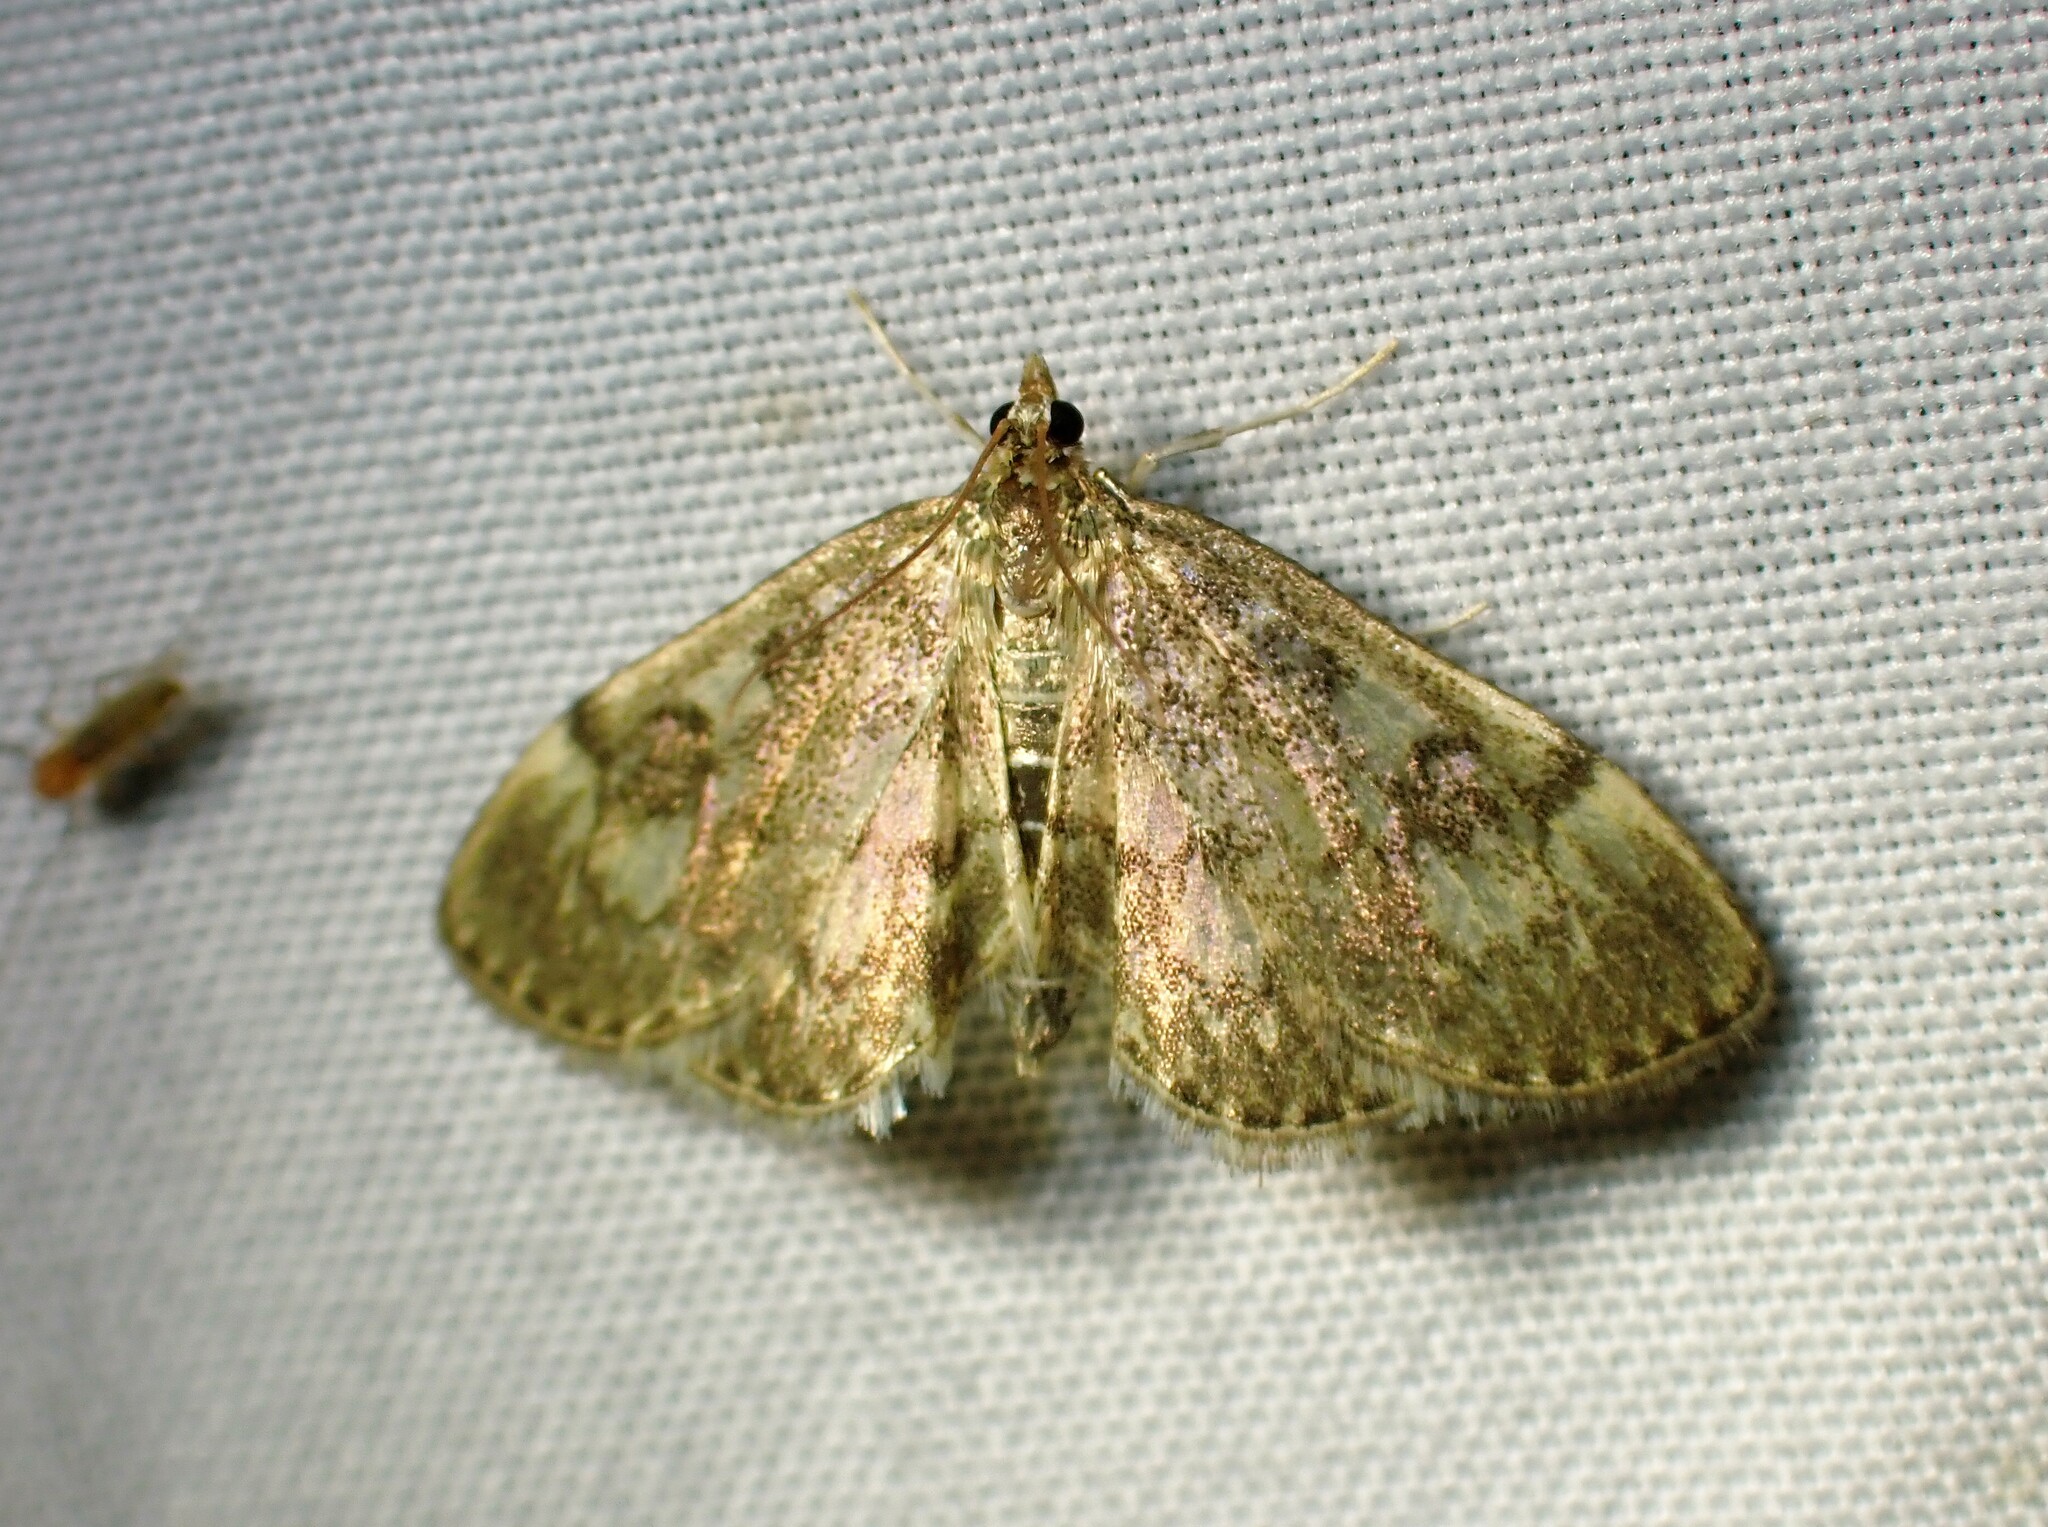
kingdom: Animalia
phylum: Arthropoda
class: Insecta
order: Lepidoptera
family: Crambidae
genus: Anania
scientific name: Anania
